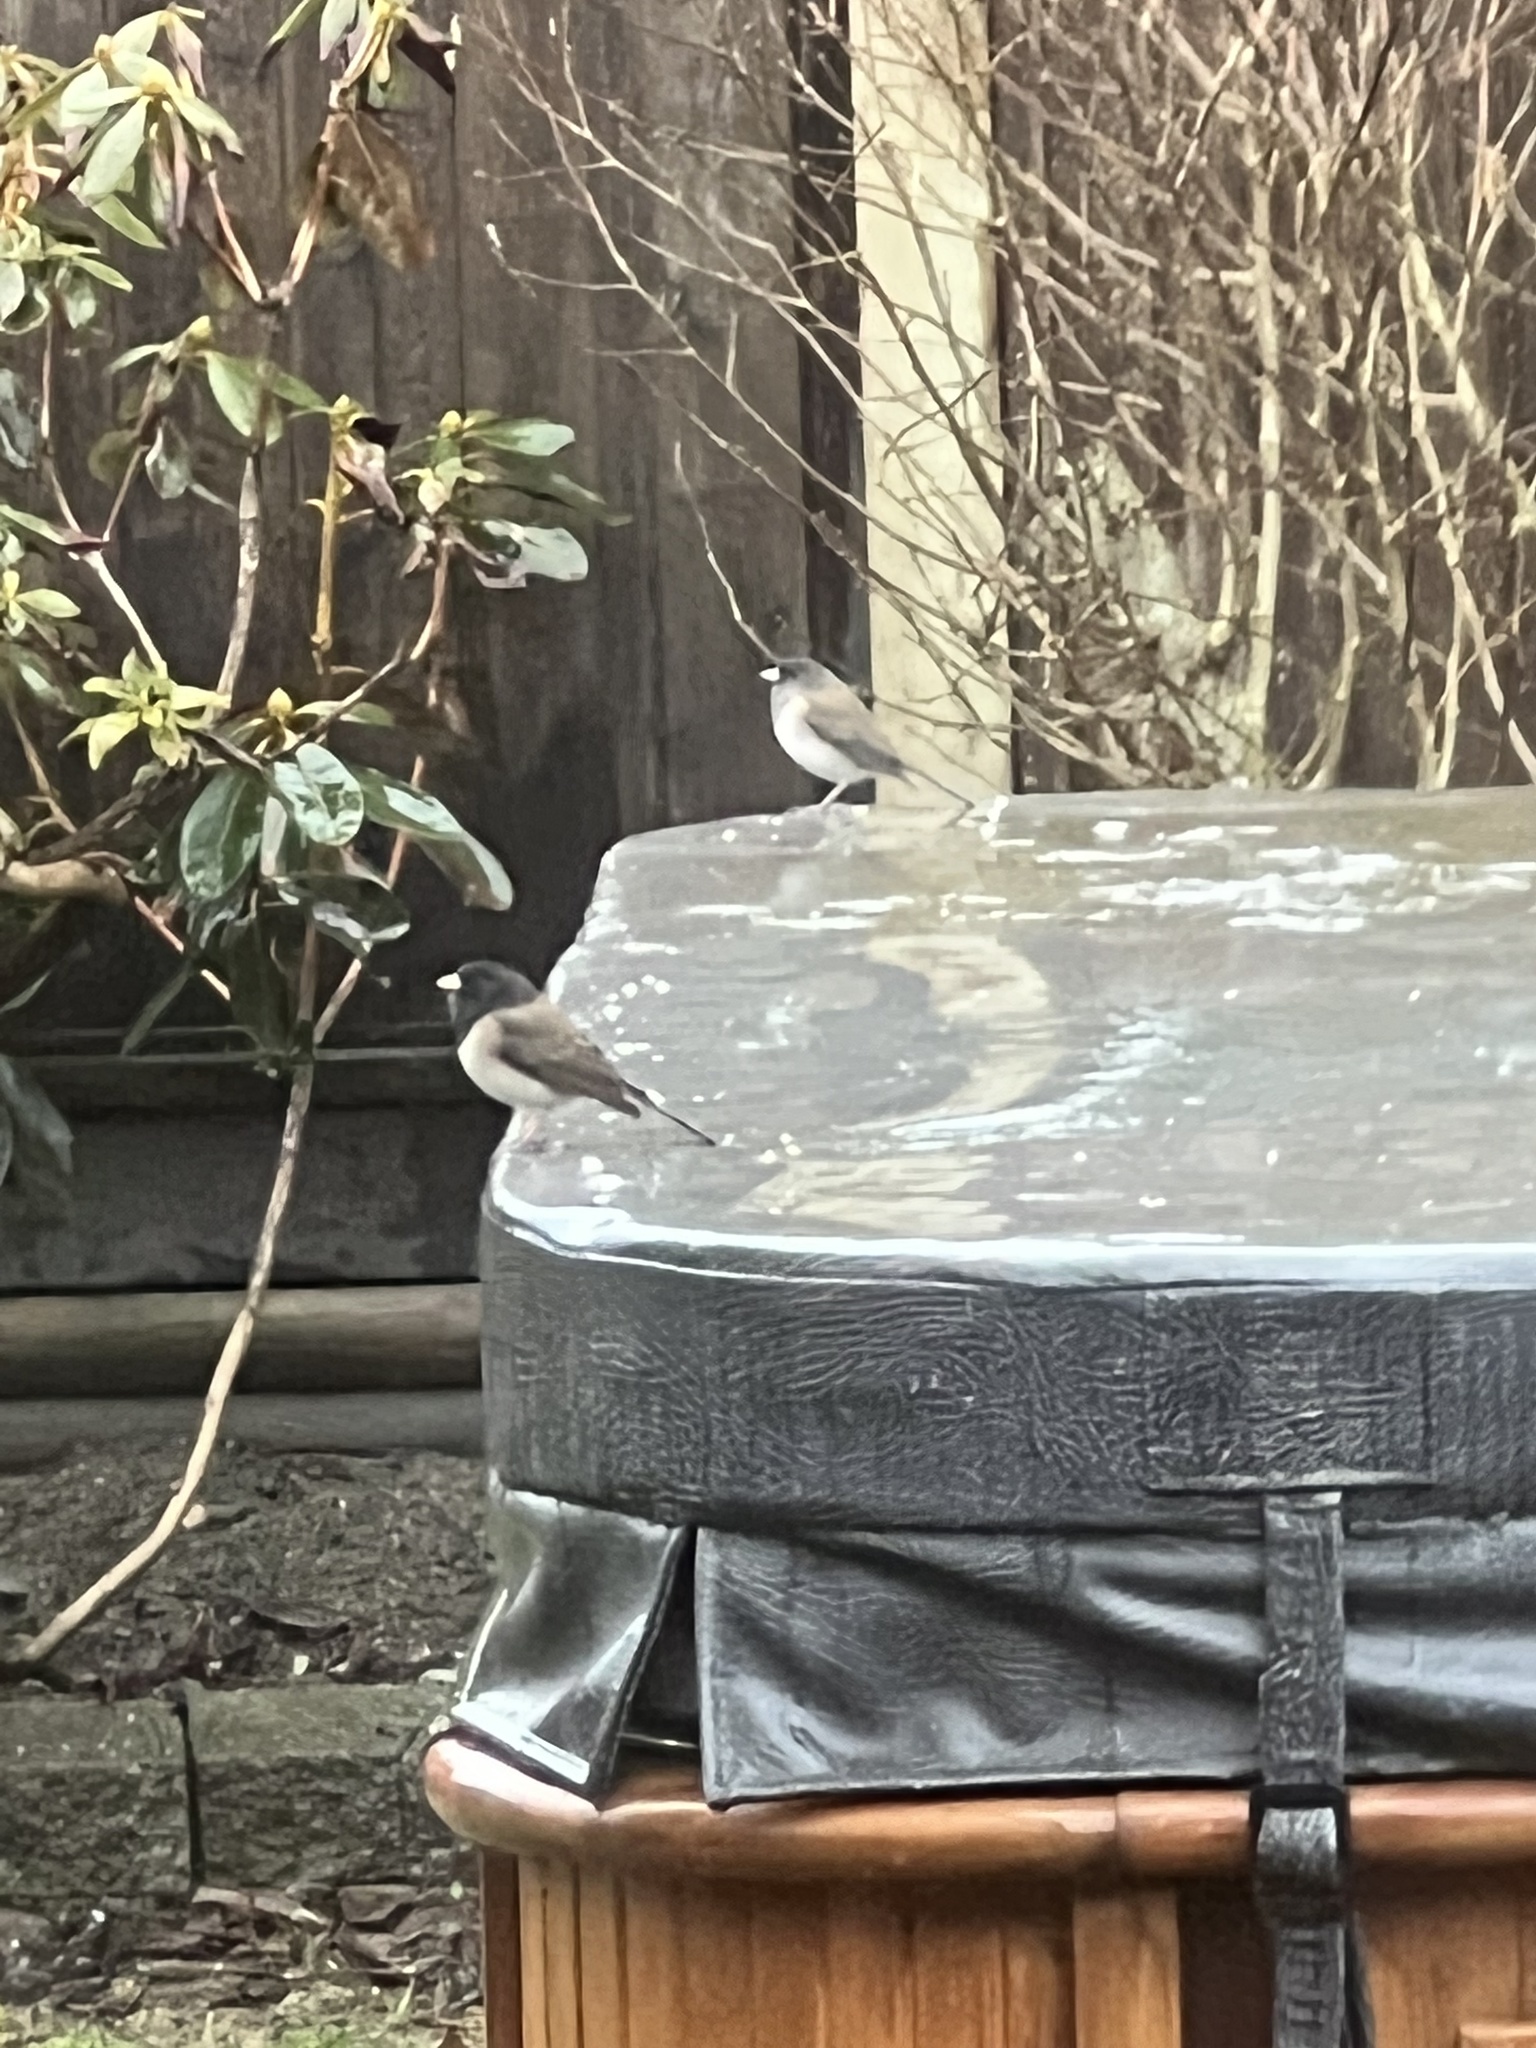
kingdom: Animalia
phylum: Chordata
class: Aves
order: Passeriformes
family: Passerellidae
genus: Junco
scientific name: Junco hyemalis
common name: Dark-eyed junco
